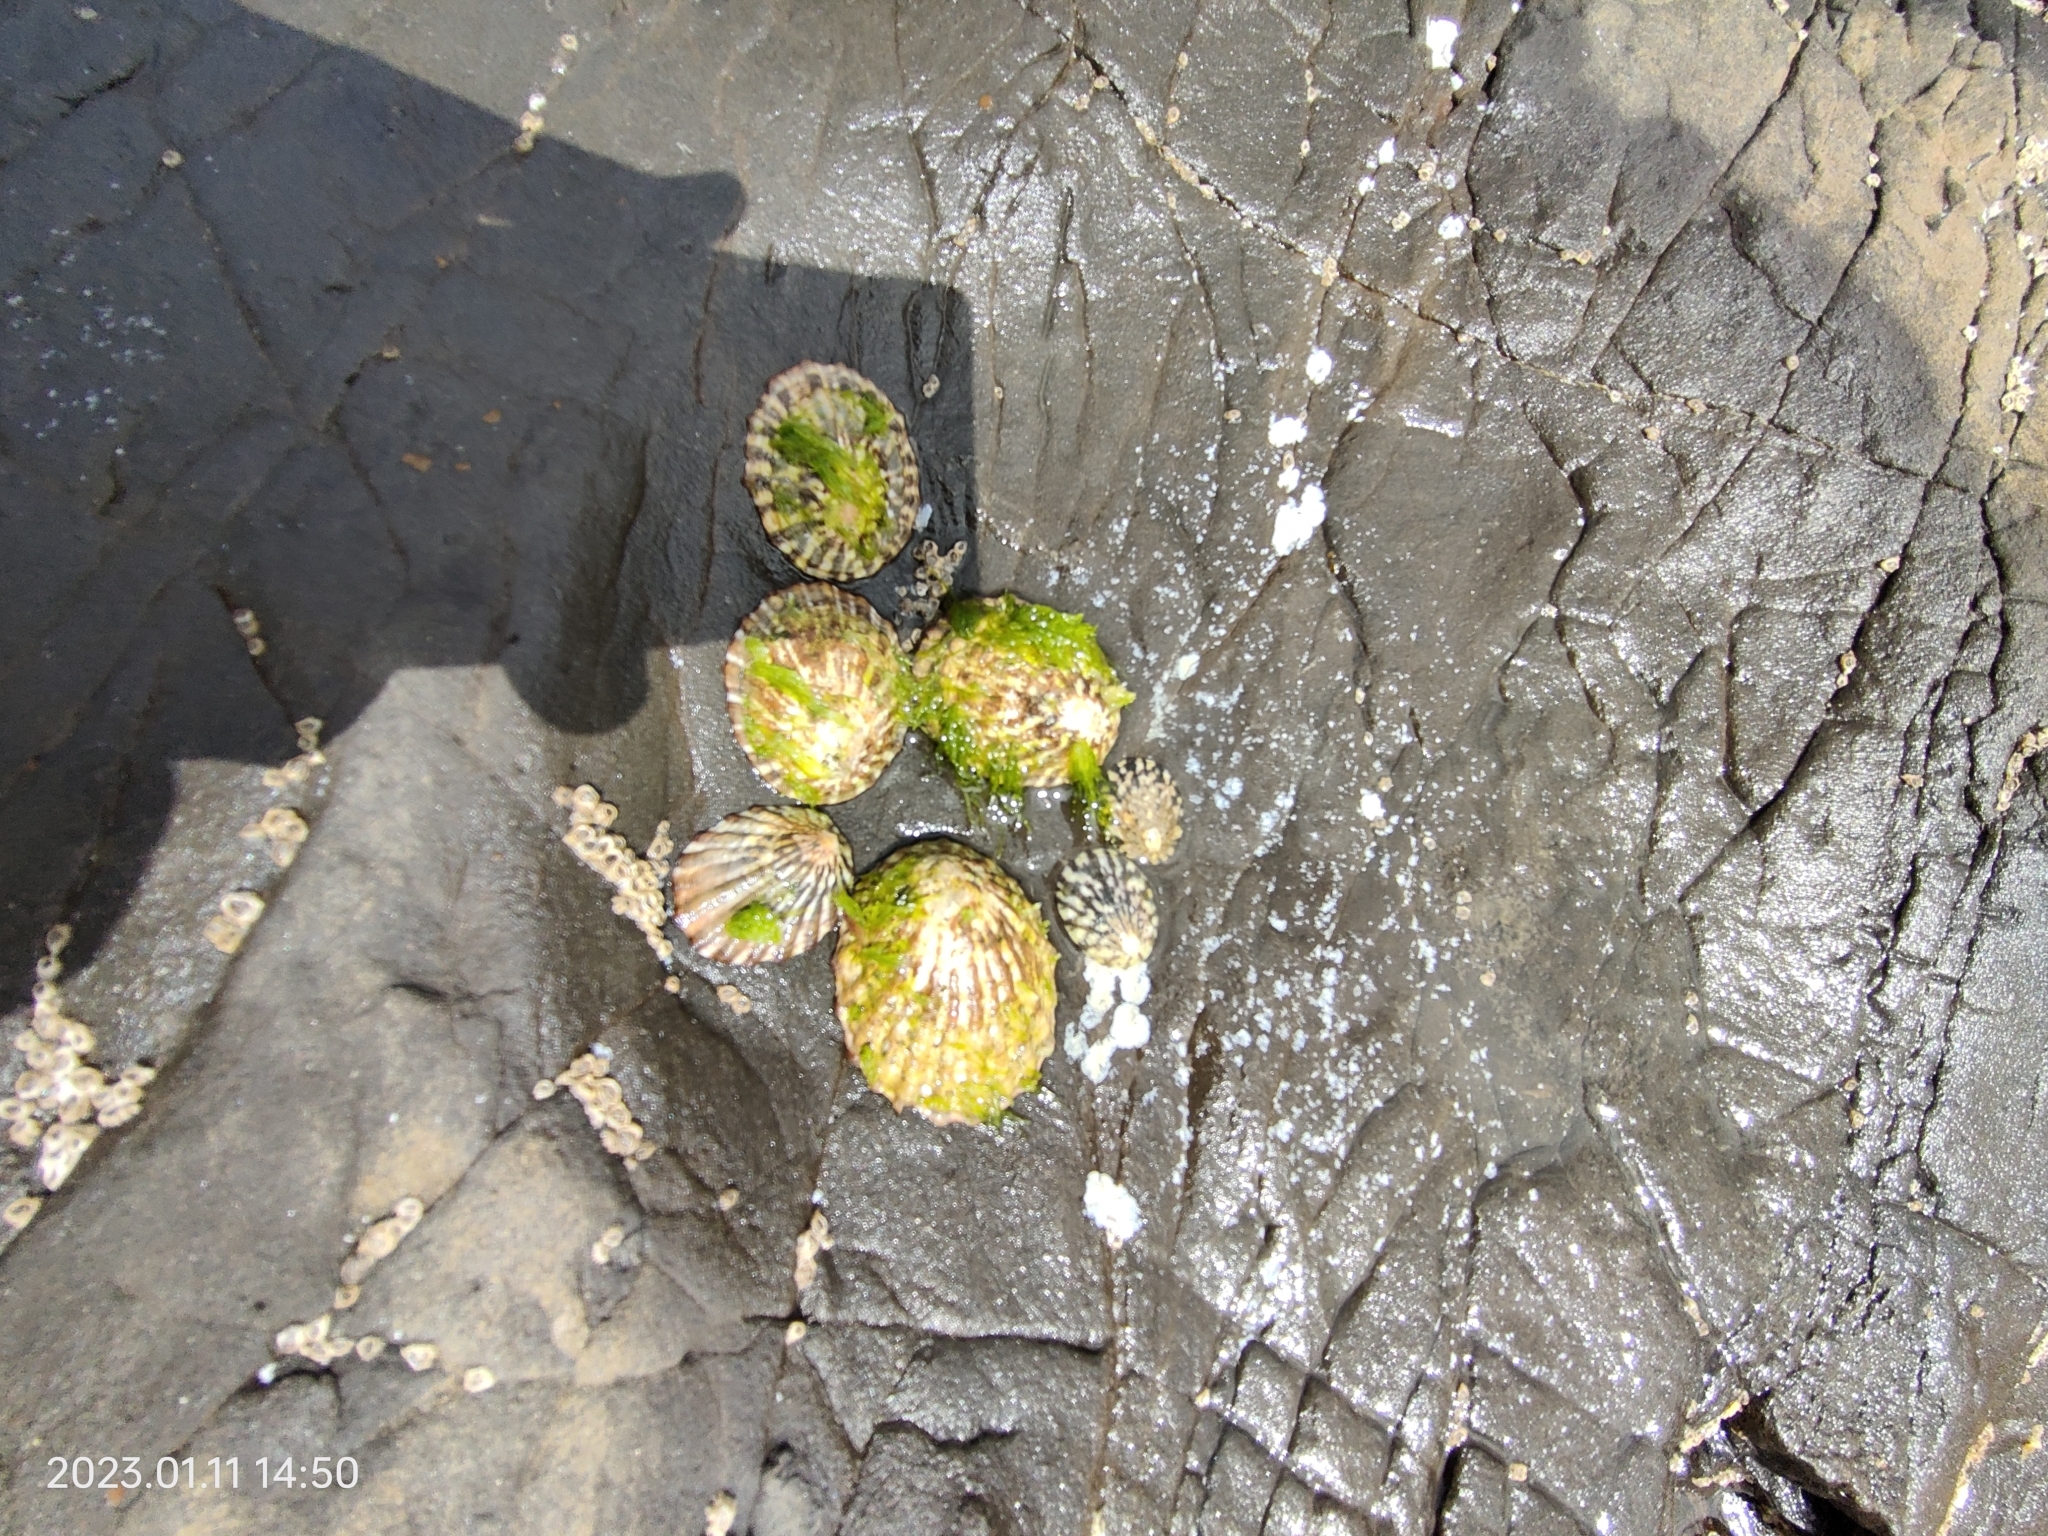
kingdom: Animalia
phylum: Mollusca
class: Gastropoda
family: Nacellidae
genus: Cellana
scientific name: Cellana strigilis
